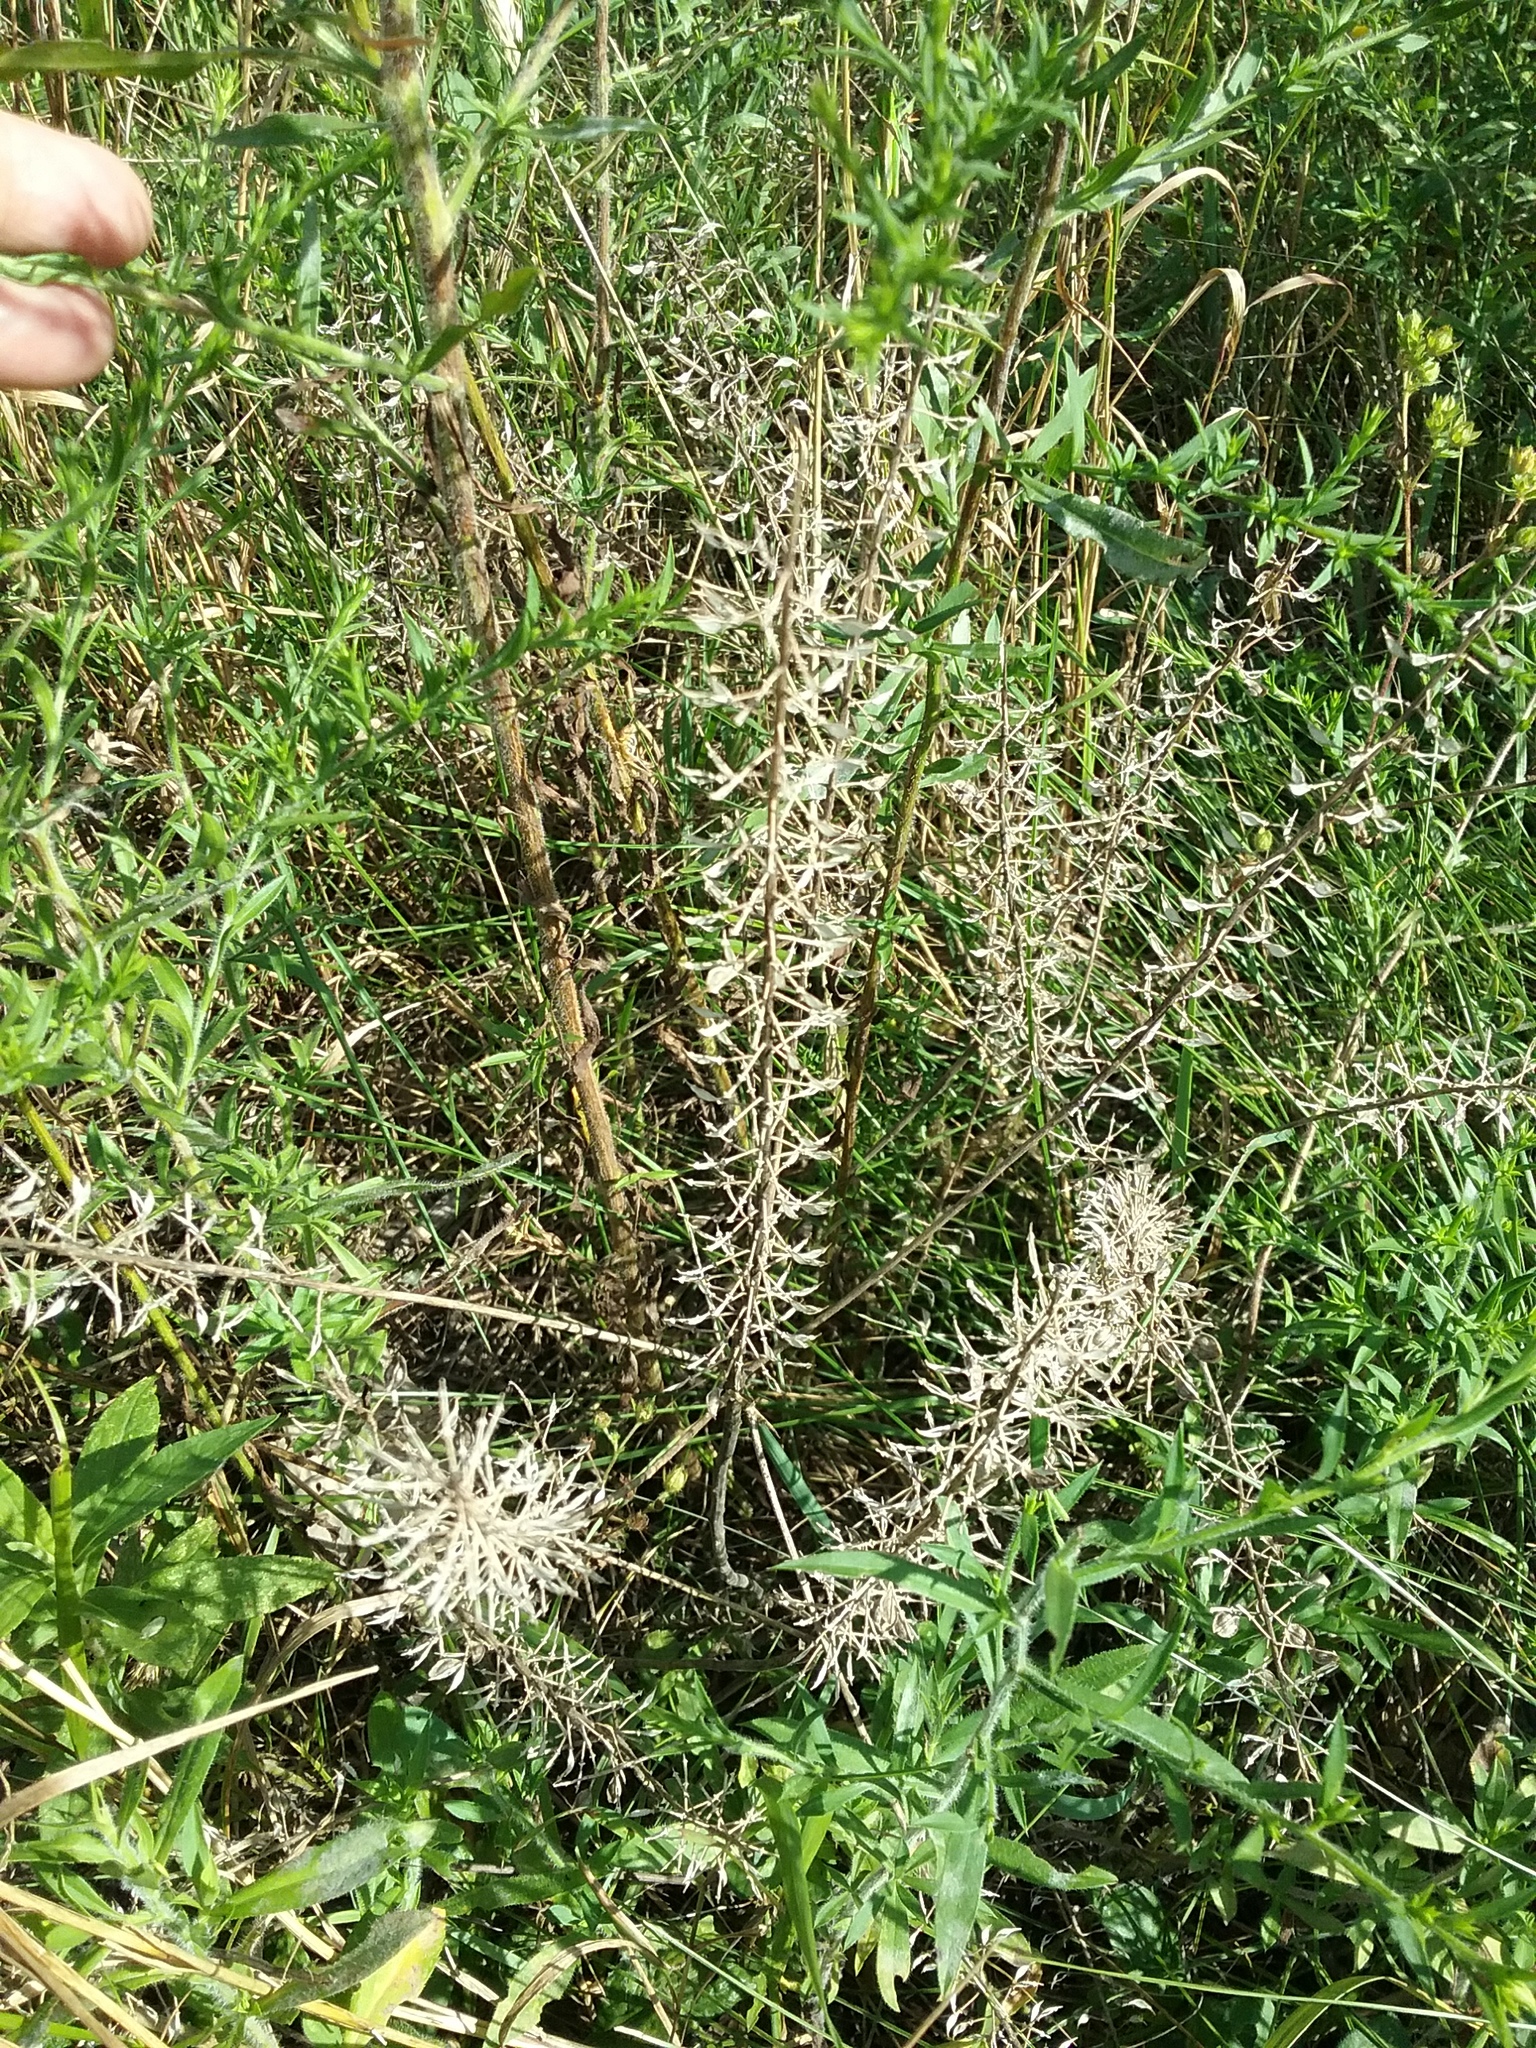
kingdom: Plantae
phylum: Tracheophyta
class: Magnoliopsida
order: Brassicales
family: Brassicaceae
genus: Lepidium
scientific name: Lepidium campestre
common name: Field pepperwort
